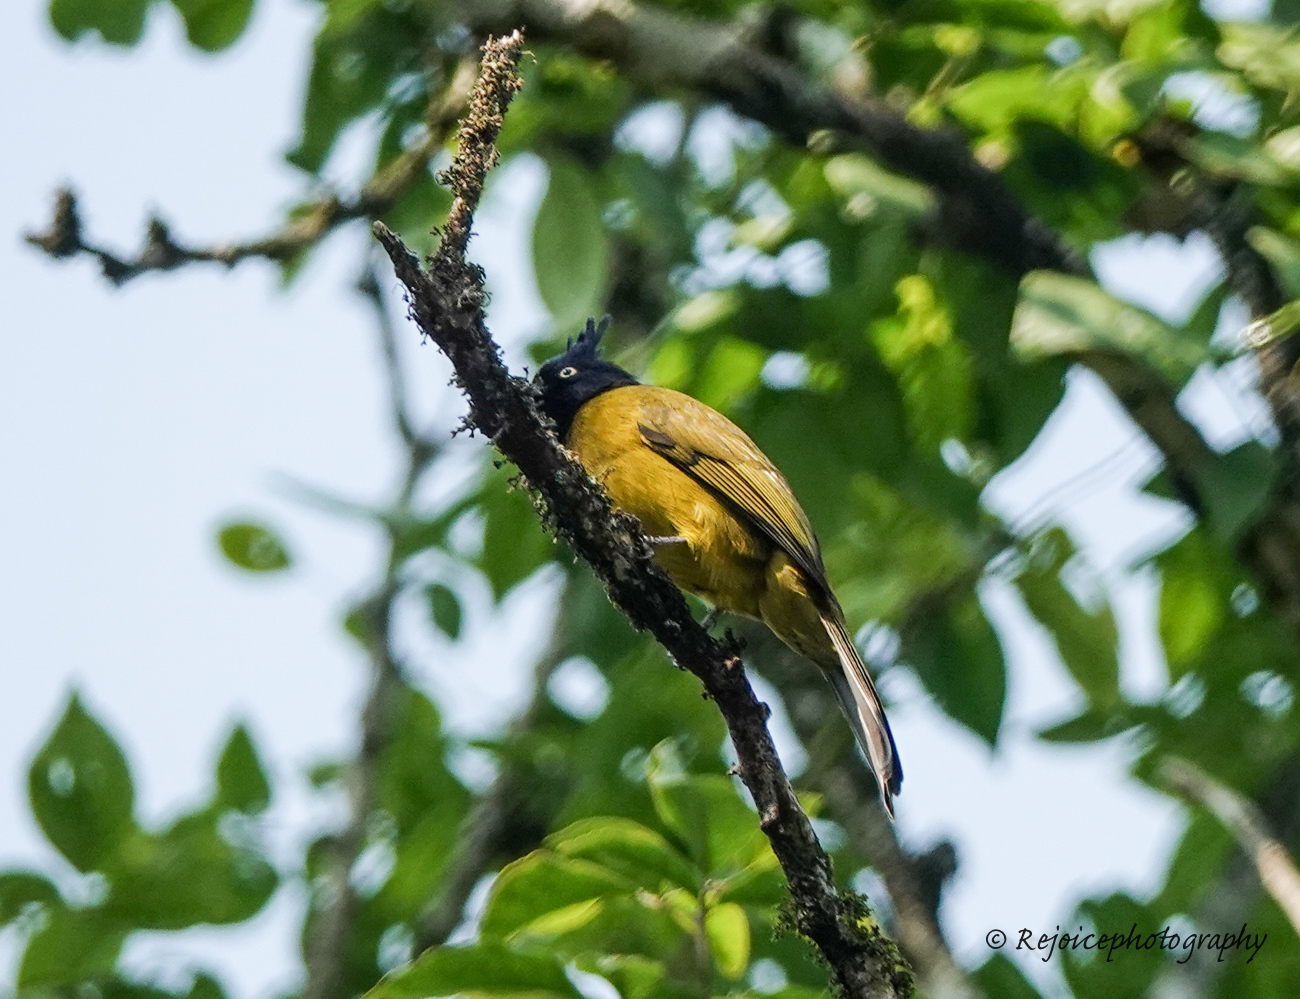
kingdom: Animalia
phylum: Chordata
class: Aves
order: Passeriformes
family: Pycnonotidae
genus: Pycnonotus
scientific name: Pycnonotus flaviventris
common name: Black-crested bulbul
